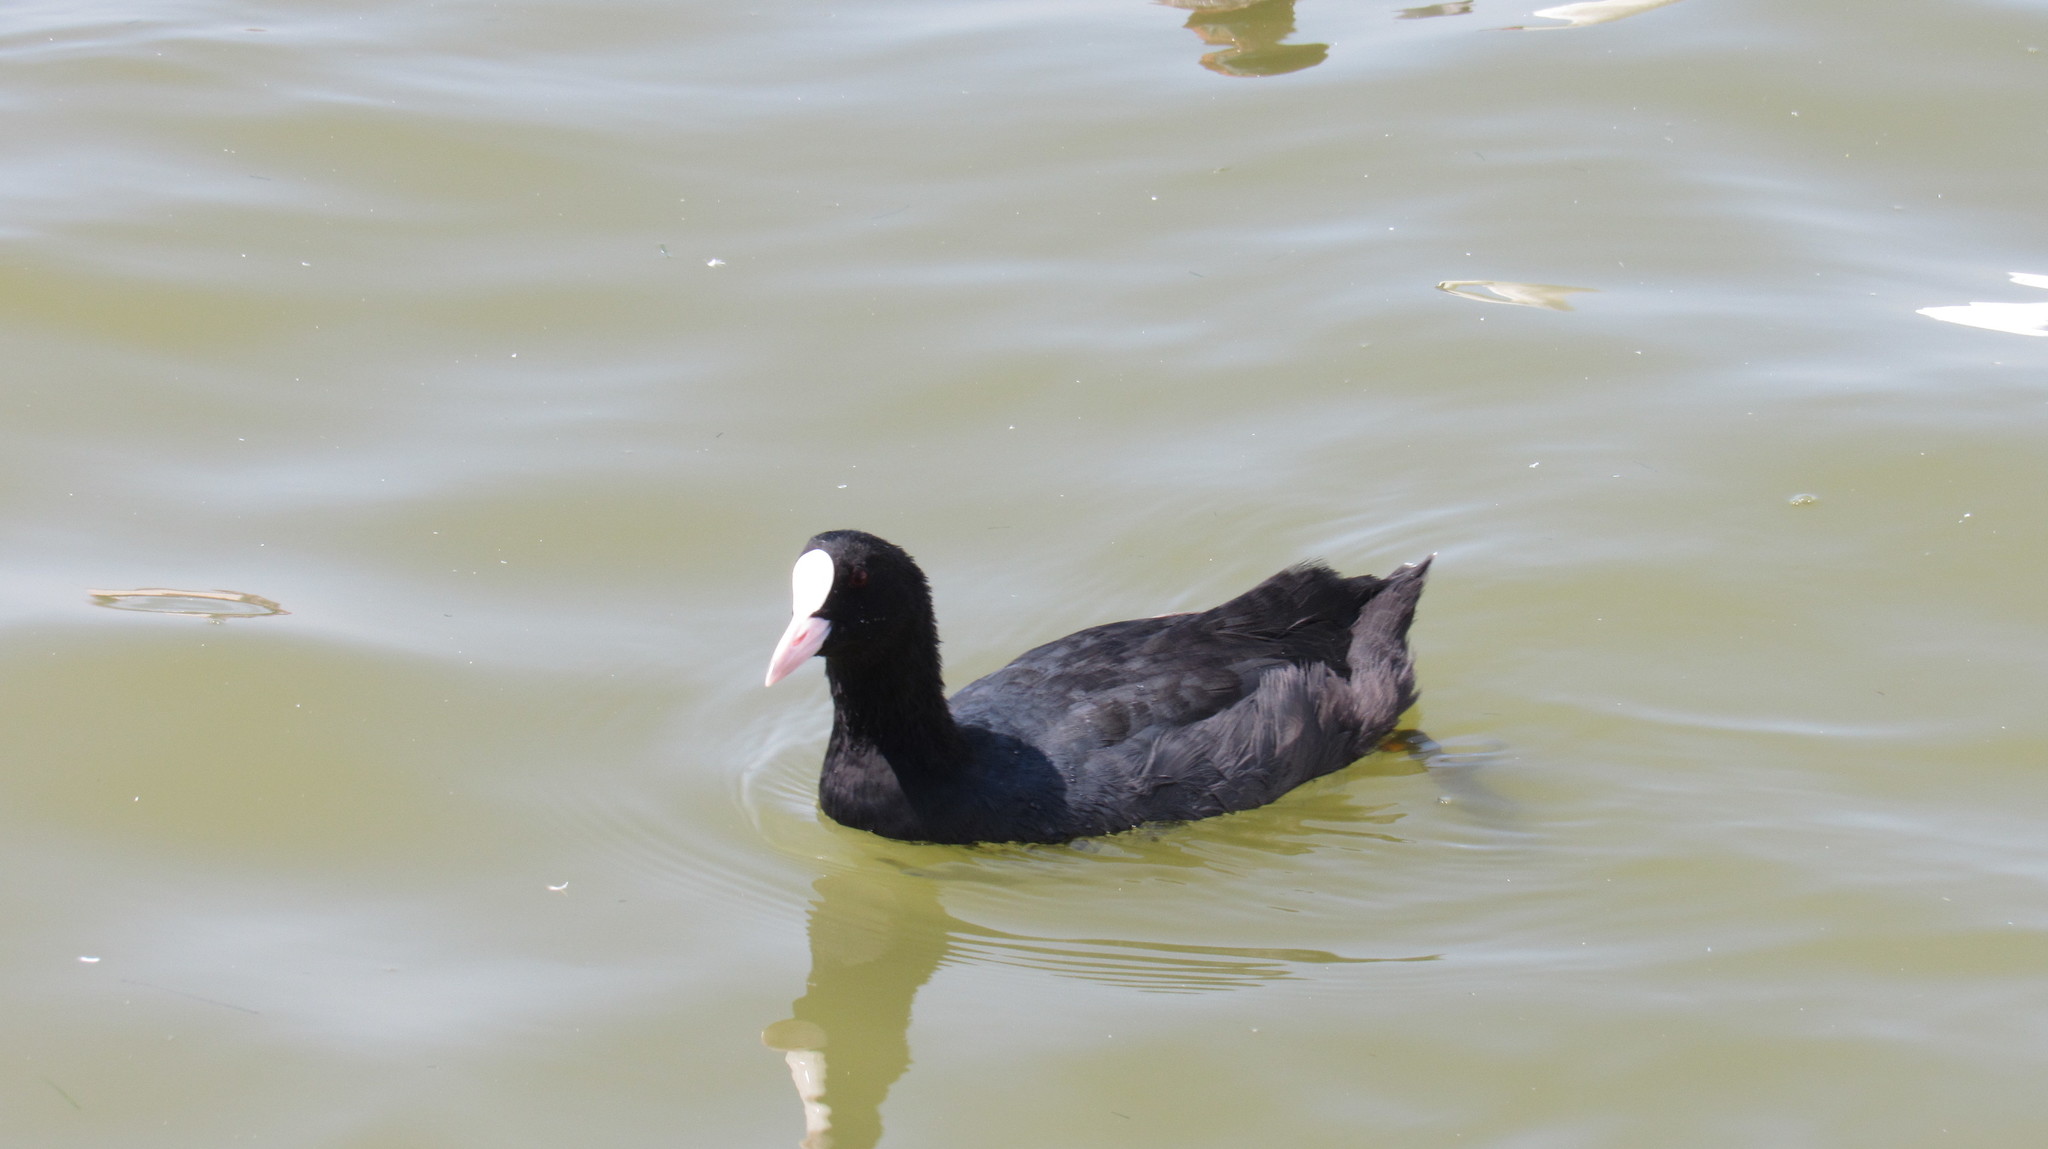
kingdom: Animalia
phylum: Chordata
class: Aves
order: Gruiformes
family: Rallidae
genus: Fulica
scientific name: Fulica atra
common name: Eurasian coot
